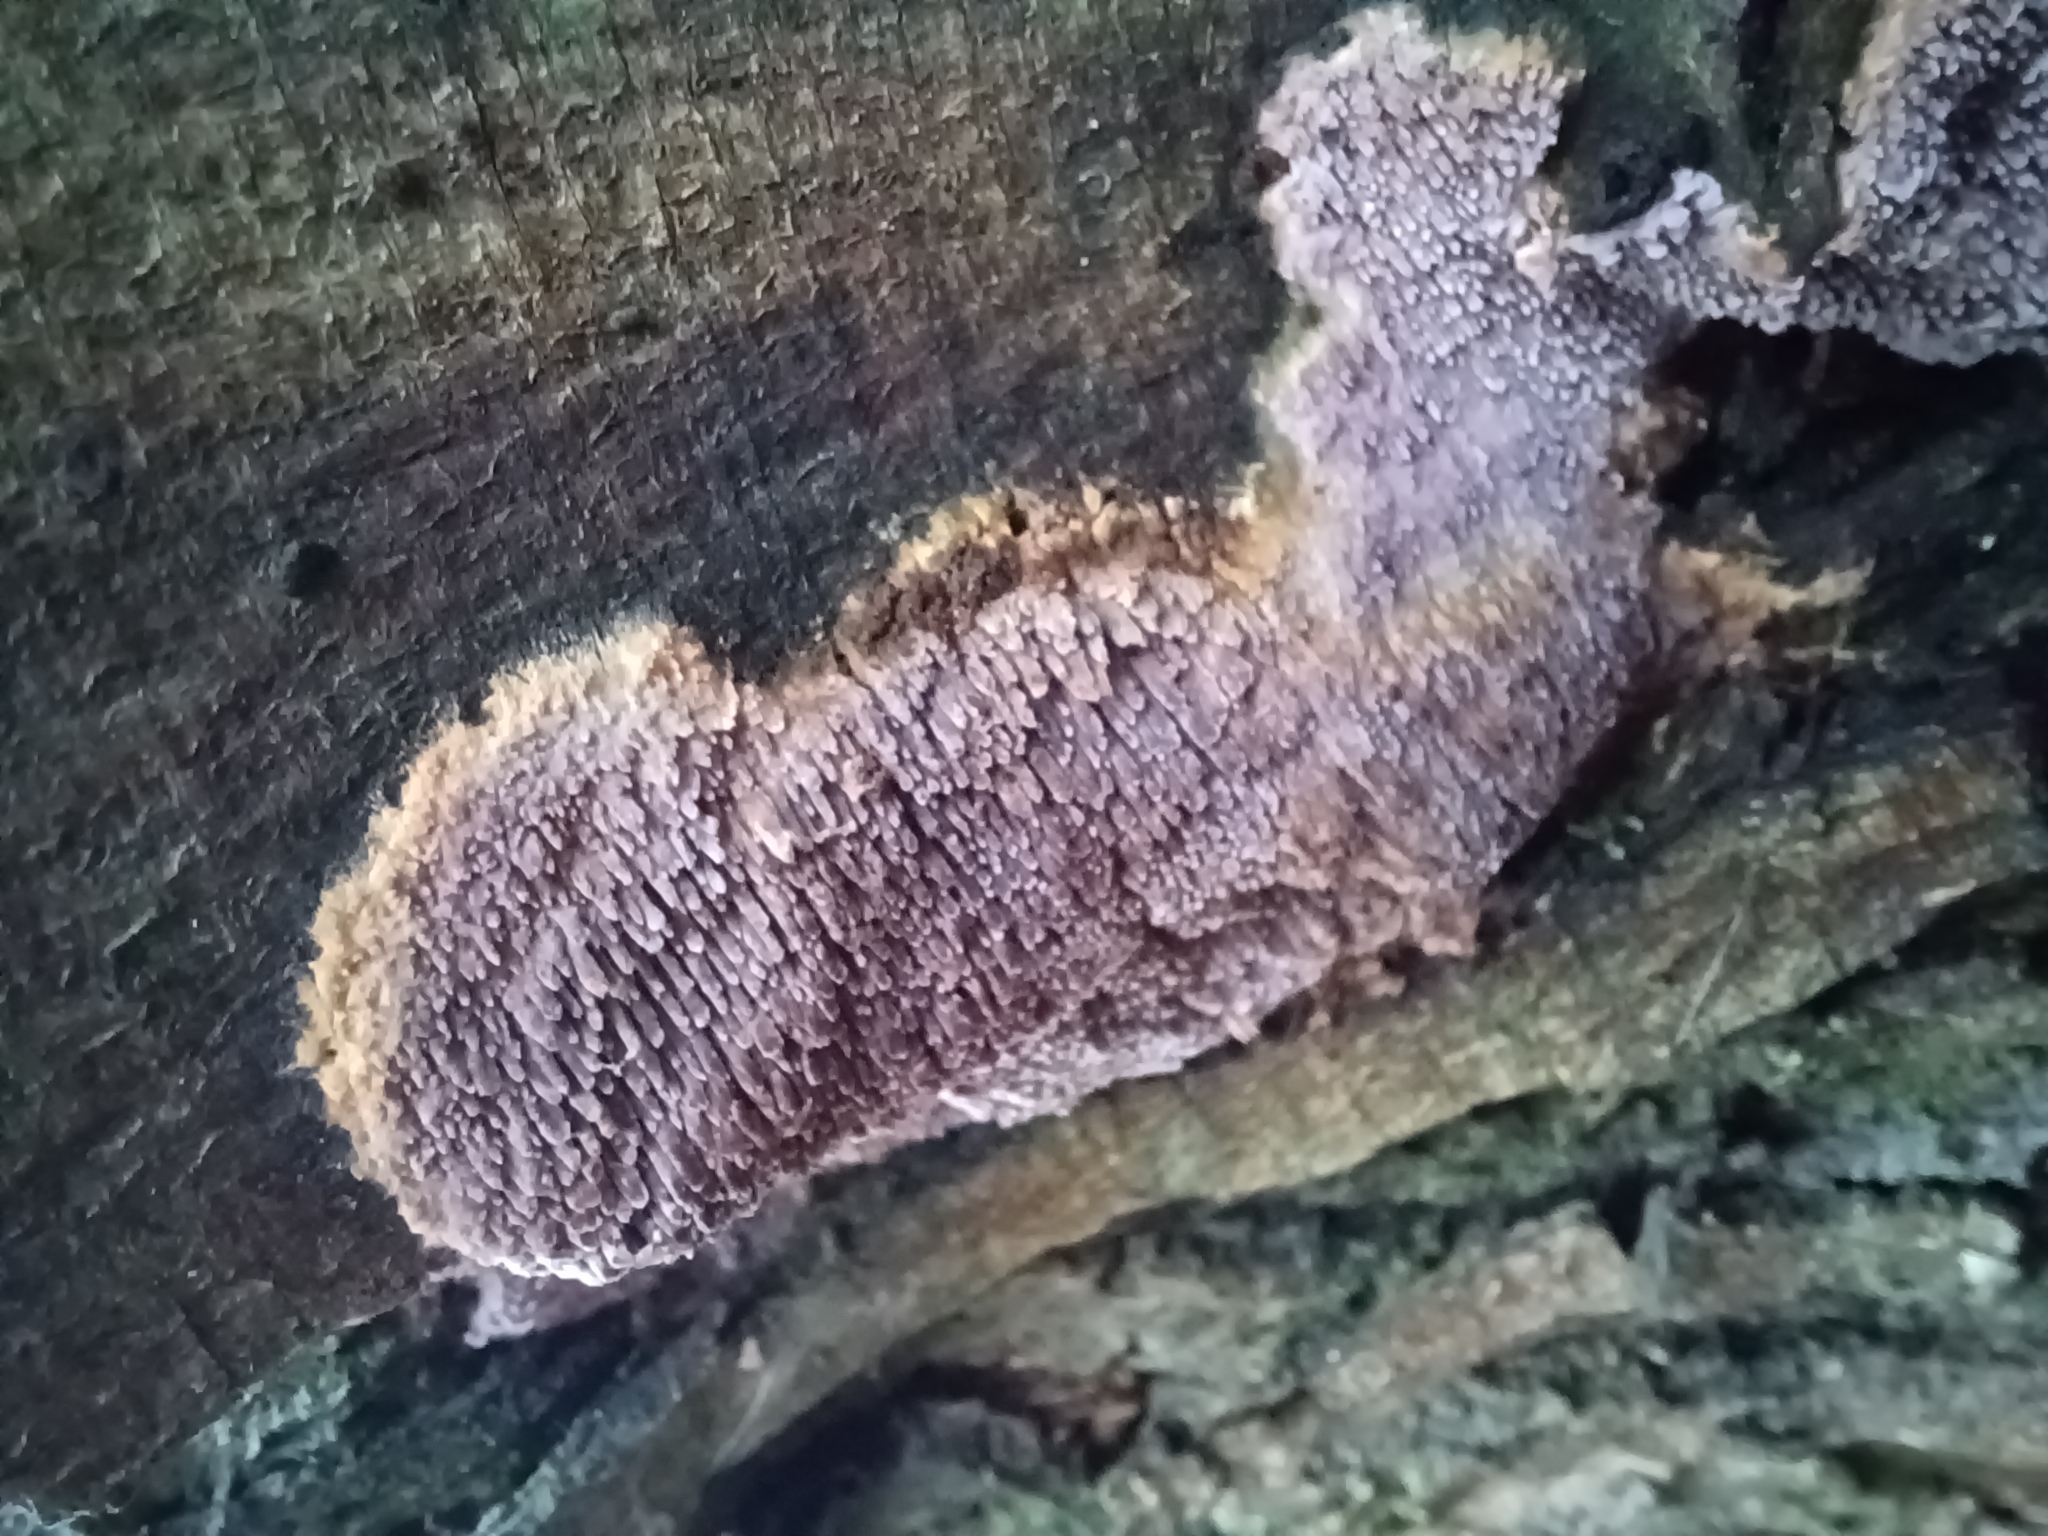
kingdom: Fungi
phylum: Basidiomycota
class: Agaricomycetes
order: Polyporales
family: Phanerochaetaceae
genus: Phlebiopsis
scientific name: Phlebiopsis dregeana
